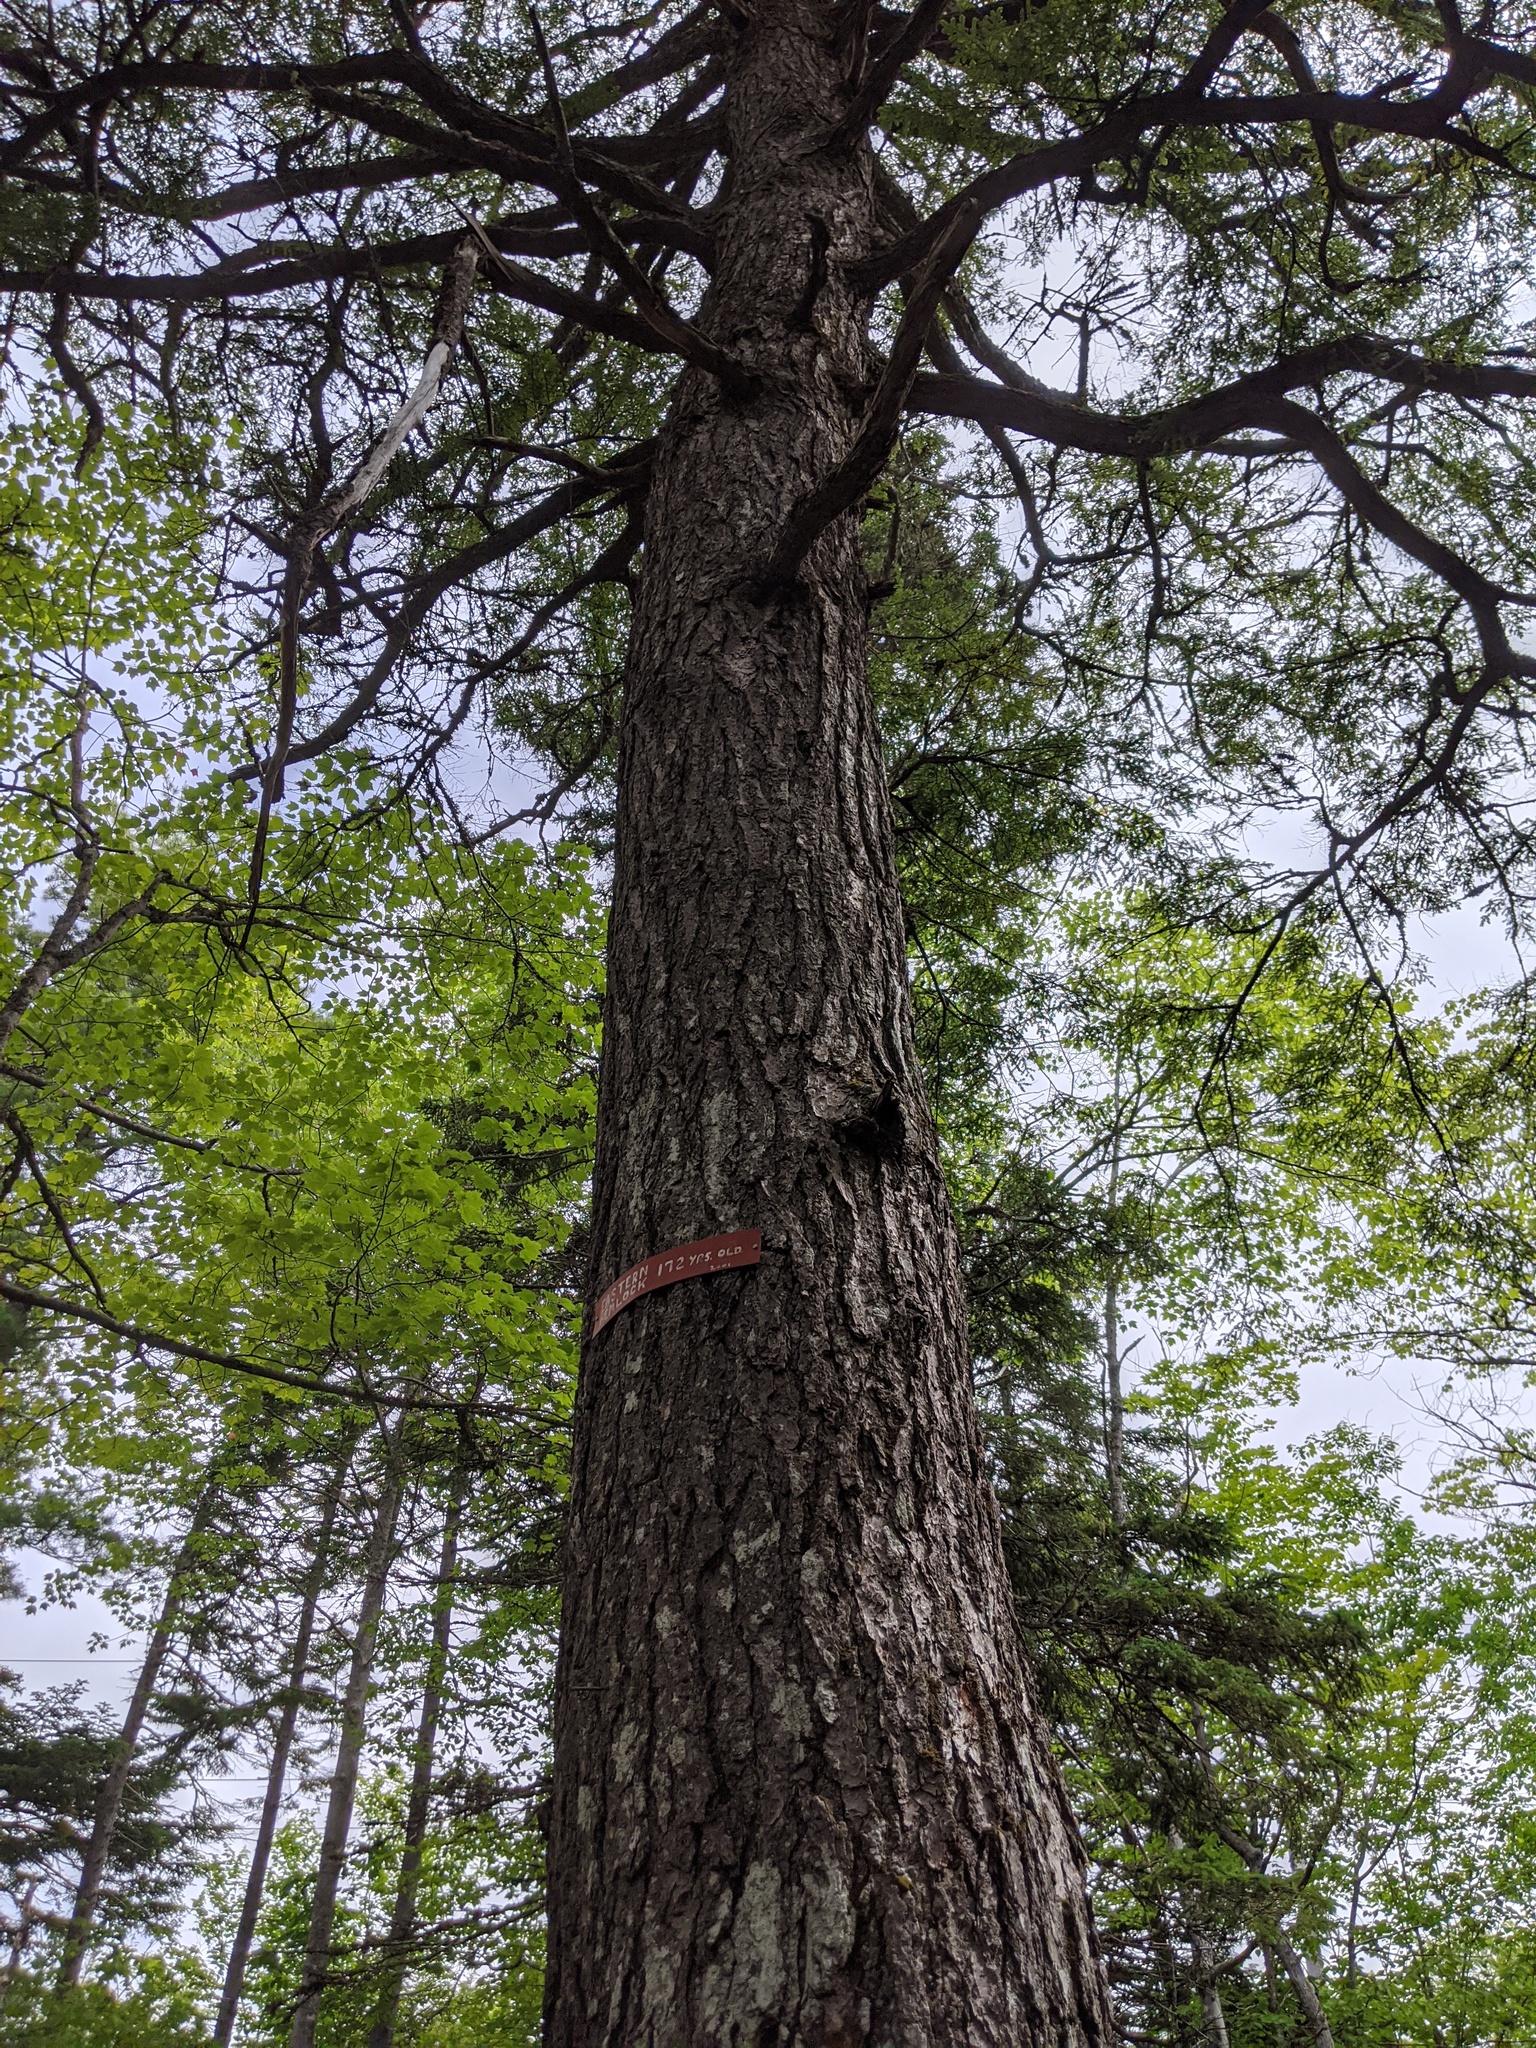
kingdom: Plantae
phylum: Tracheophyta
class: Pinopsida
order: Pinales
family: Pinaceae
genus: Tsuga
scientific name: Tsuga canadensis
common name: Eastern hemlock
